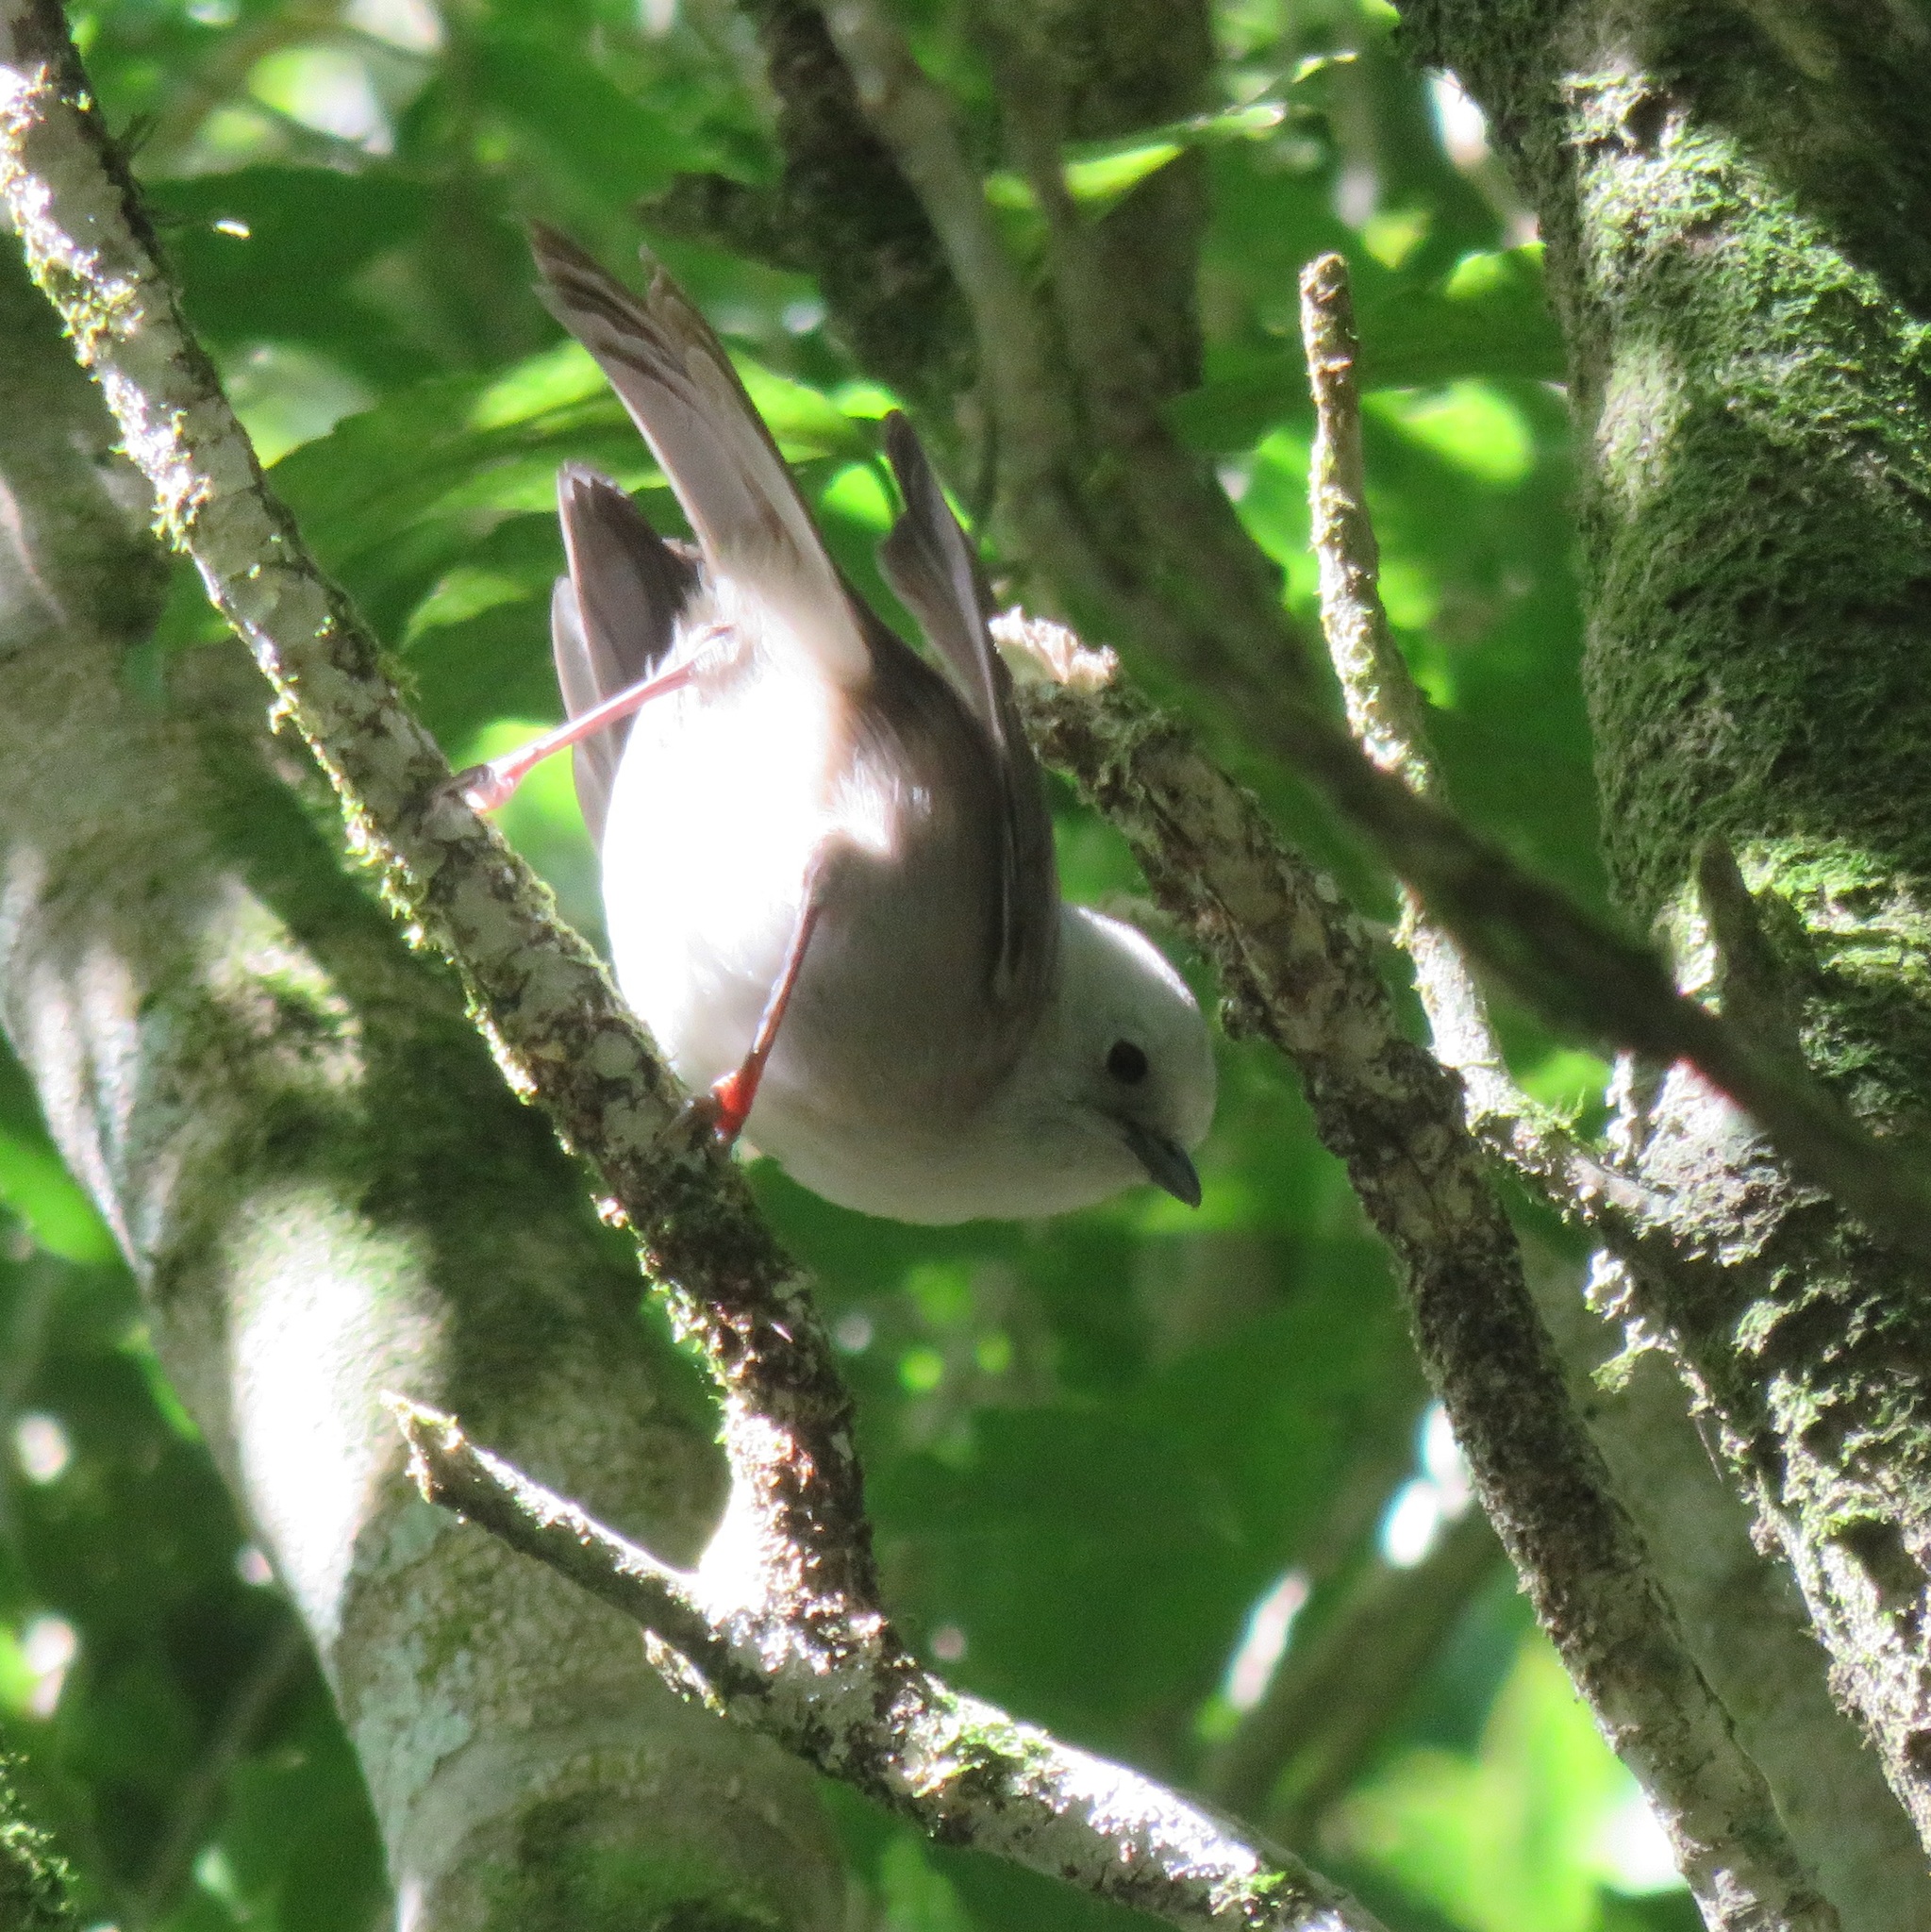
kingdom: Animalia
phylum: Chordata
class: Aves
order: Passeriformes
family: Acanthizidae
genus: Mohoua
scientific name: Mohoua albicilla
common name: Whitehead
